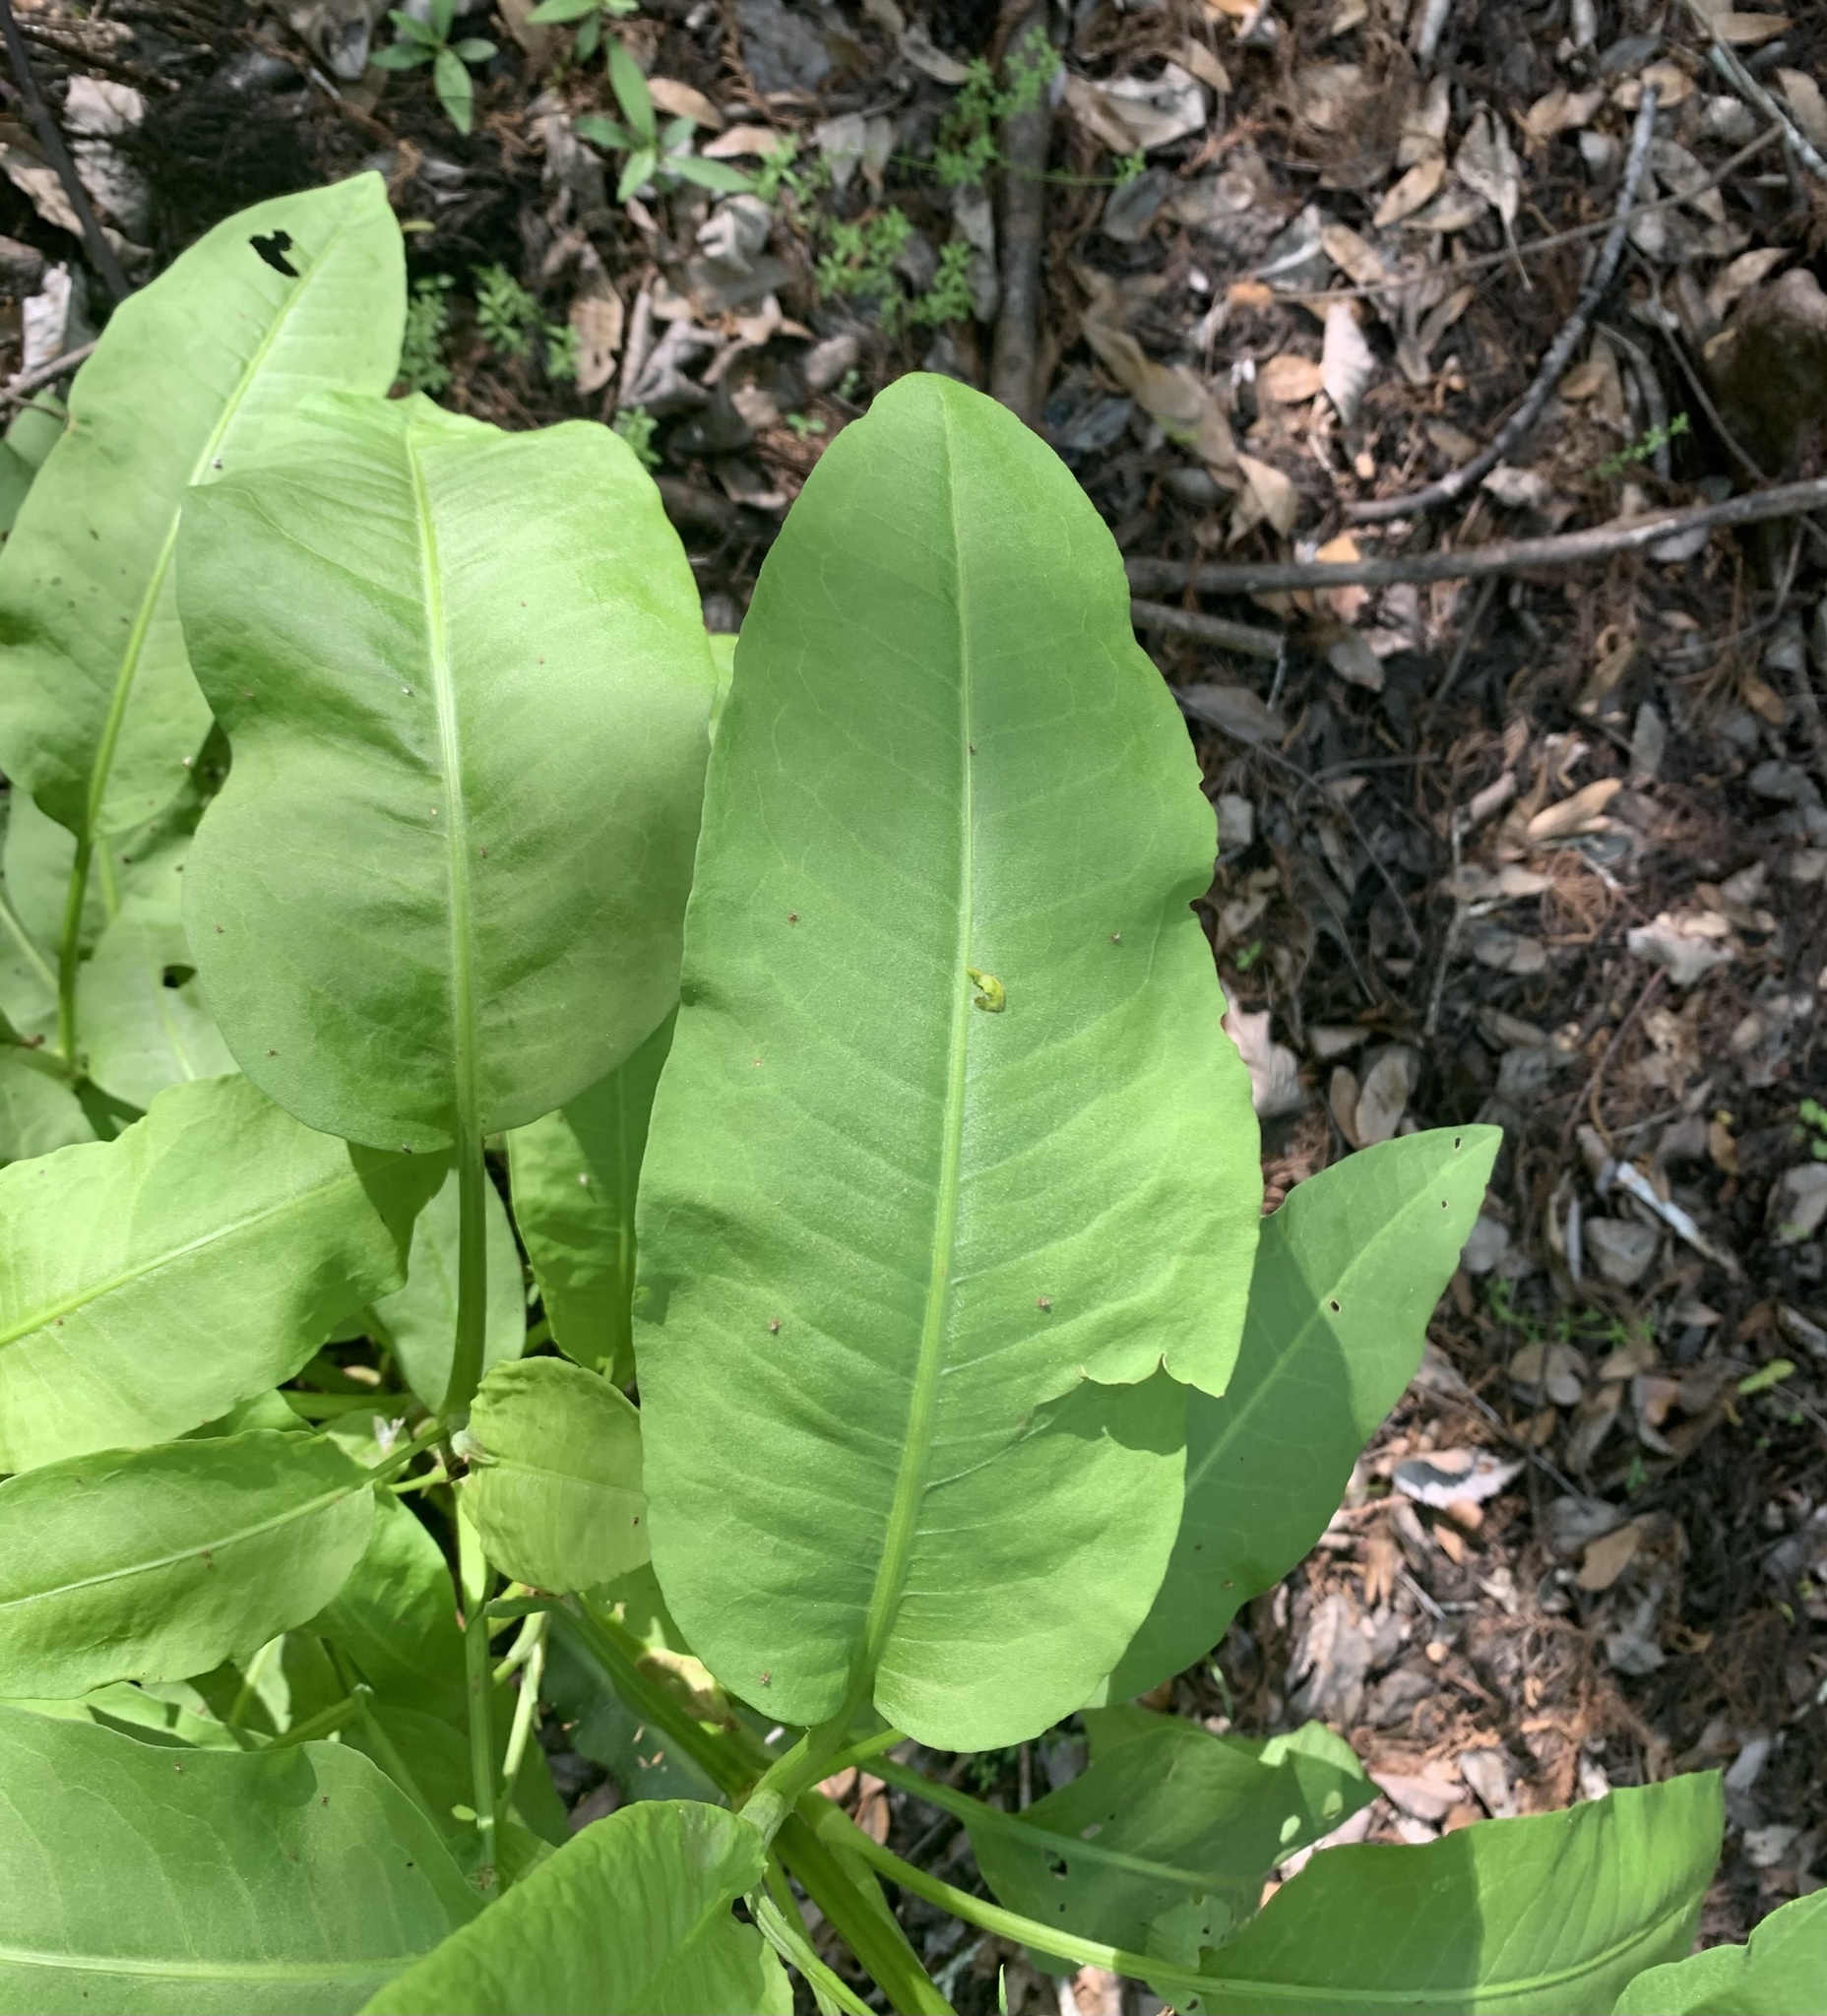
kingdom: Plantae
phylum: Tracheophyta
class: Magnoliopsida
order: Caryophyllales
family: Polygonaceae
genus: Rumex
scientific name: Rumex verticillatus
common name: Swamp dock
